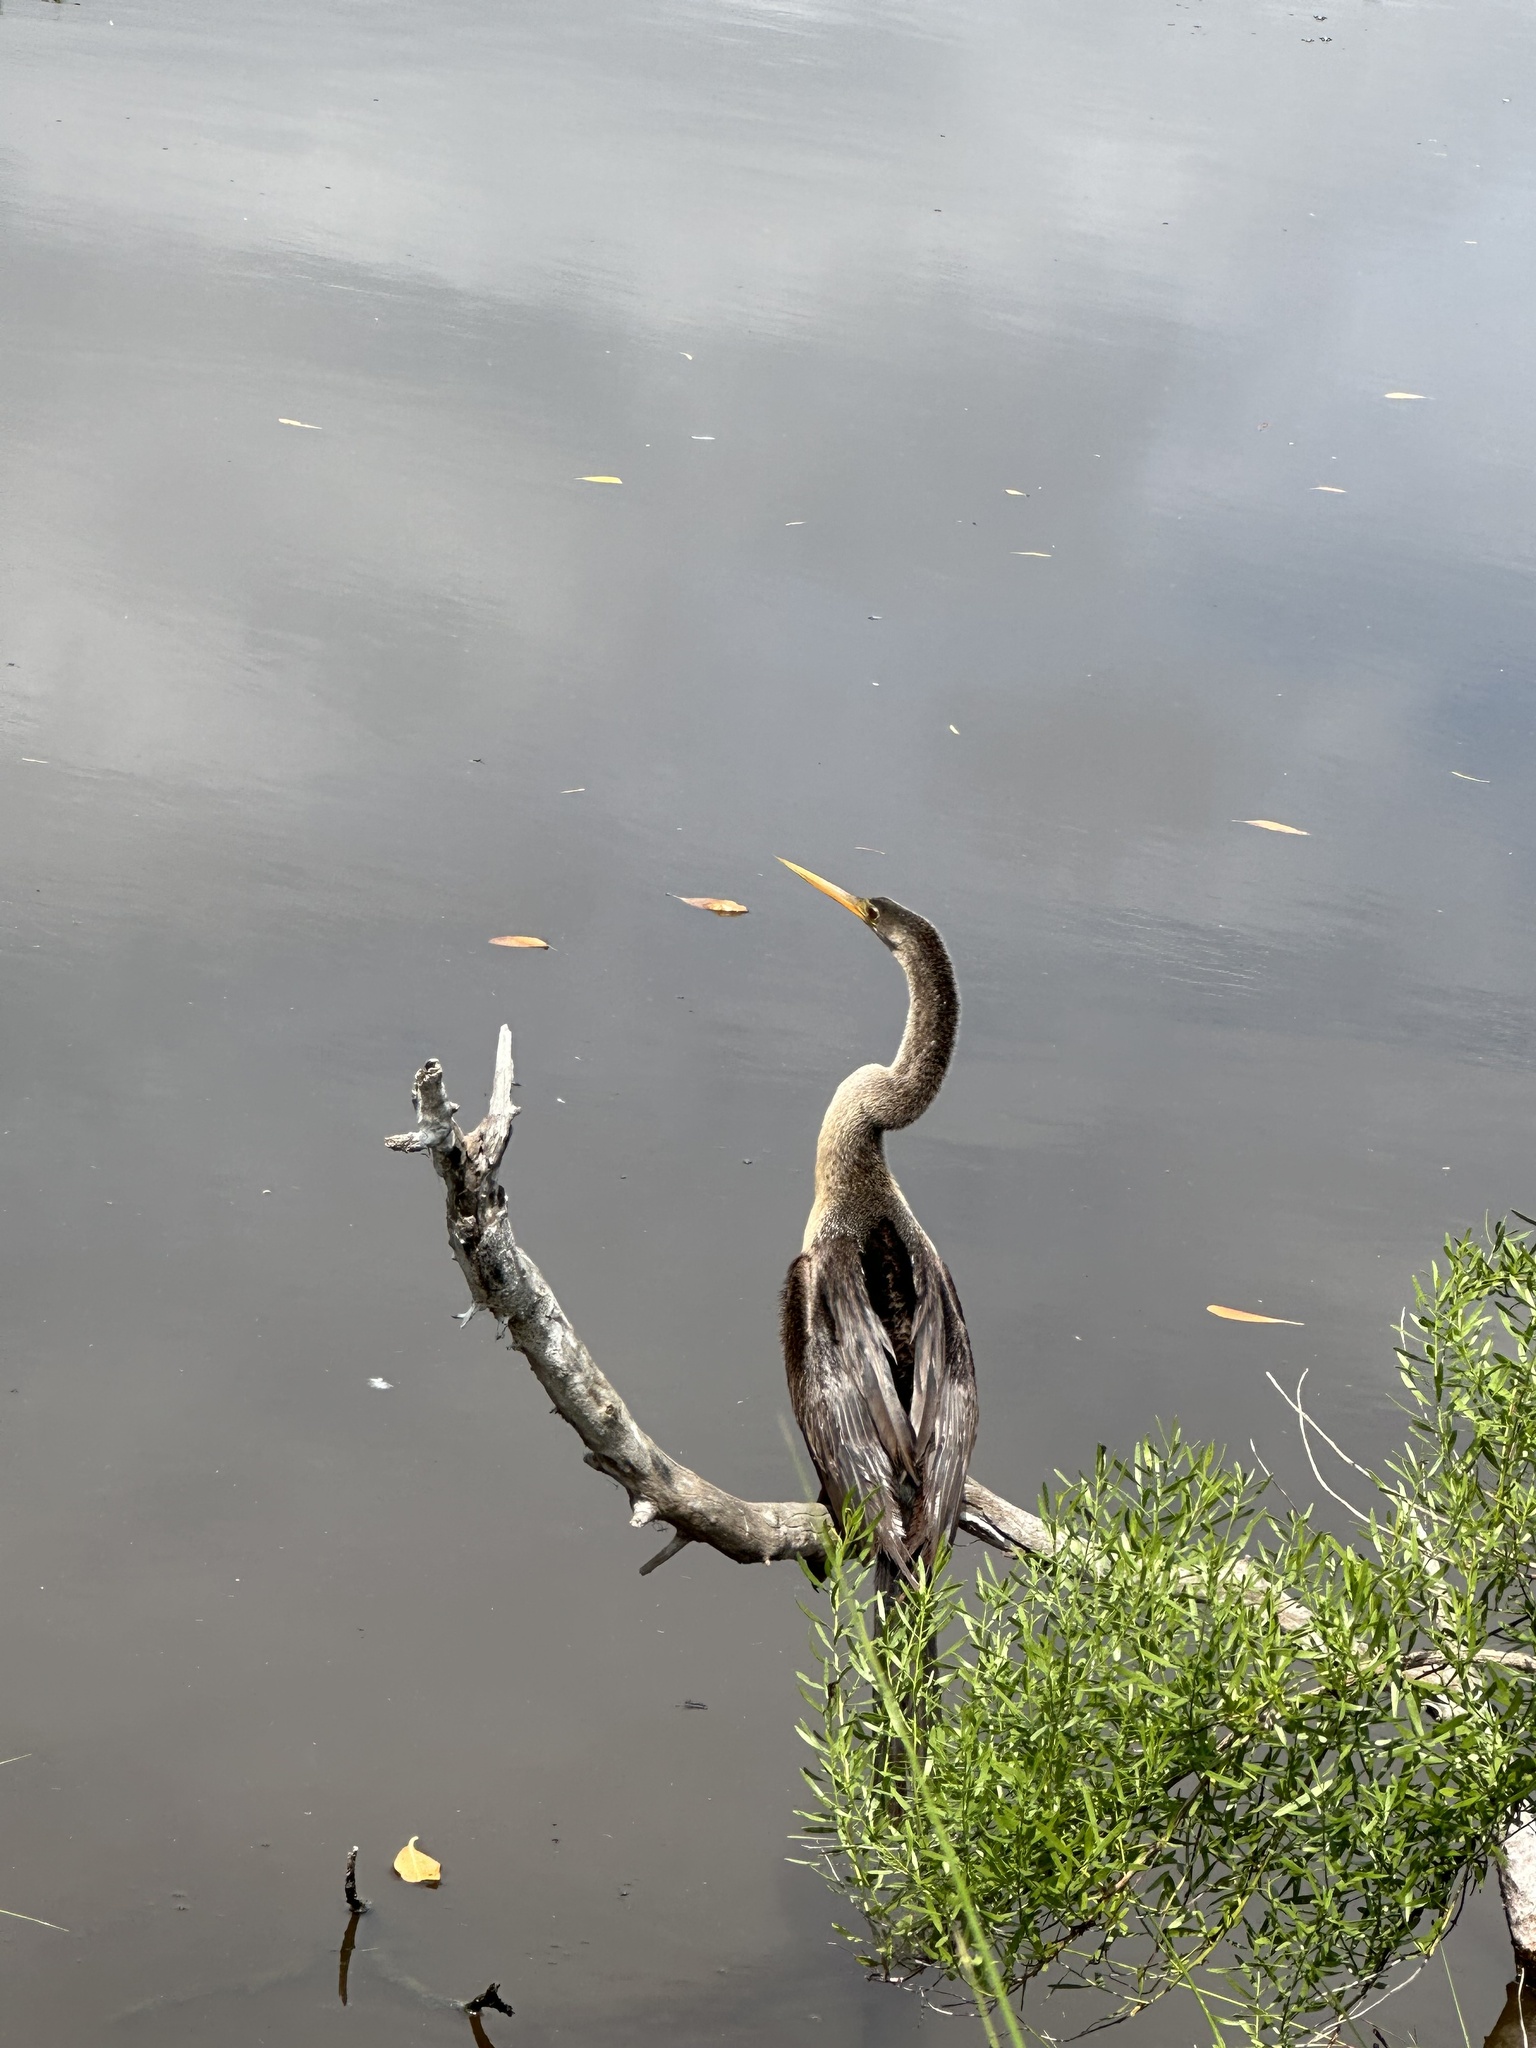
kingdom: Animalia
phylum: Chordata
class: Aves
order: Suliformes
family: Anhingidae
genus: Anhinga
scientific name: Anhinga anhinga
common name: Anhinga
